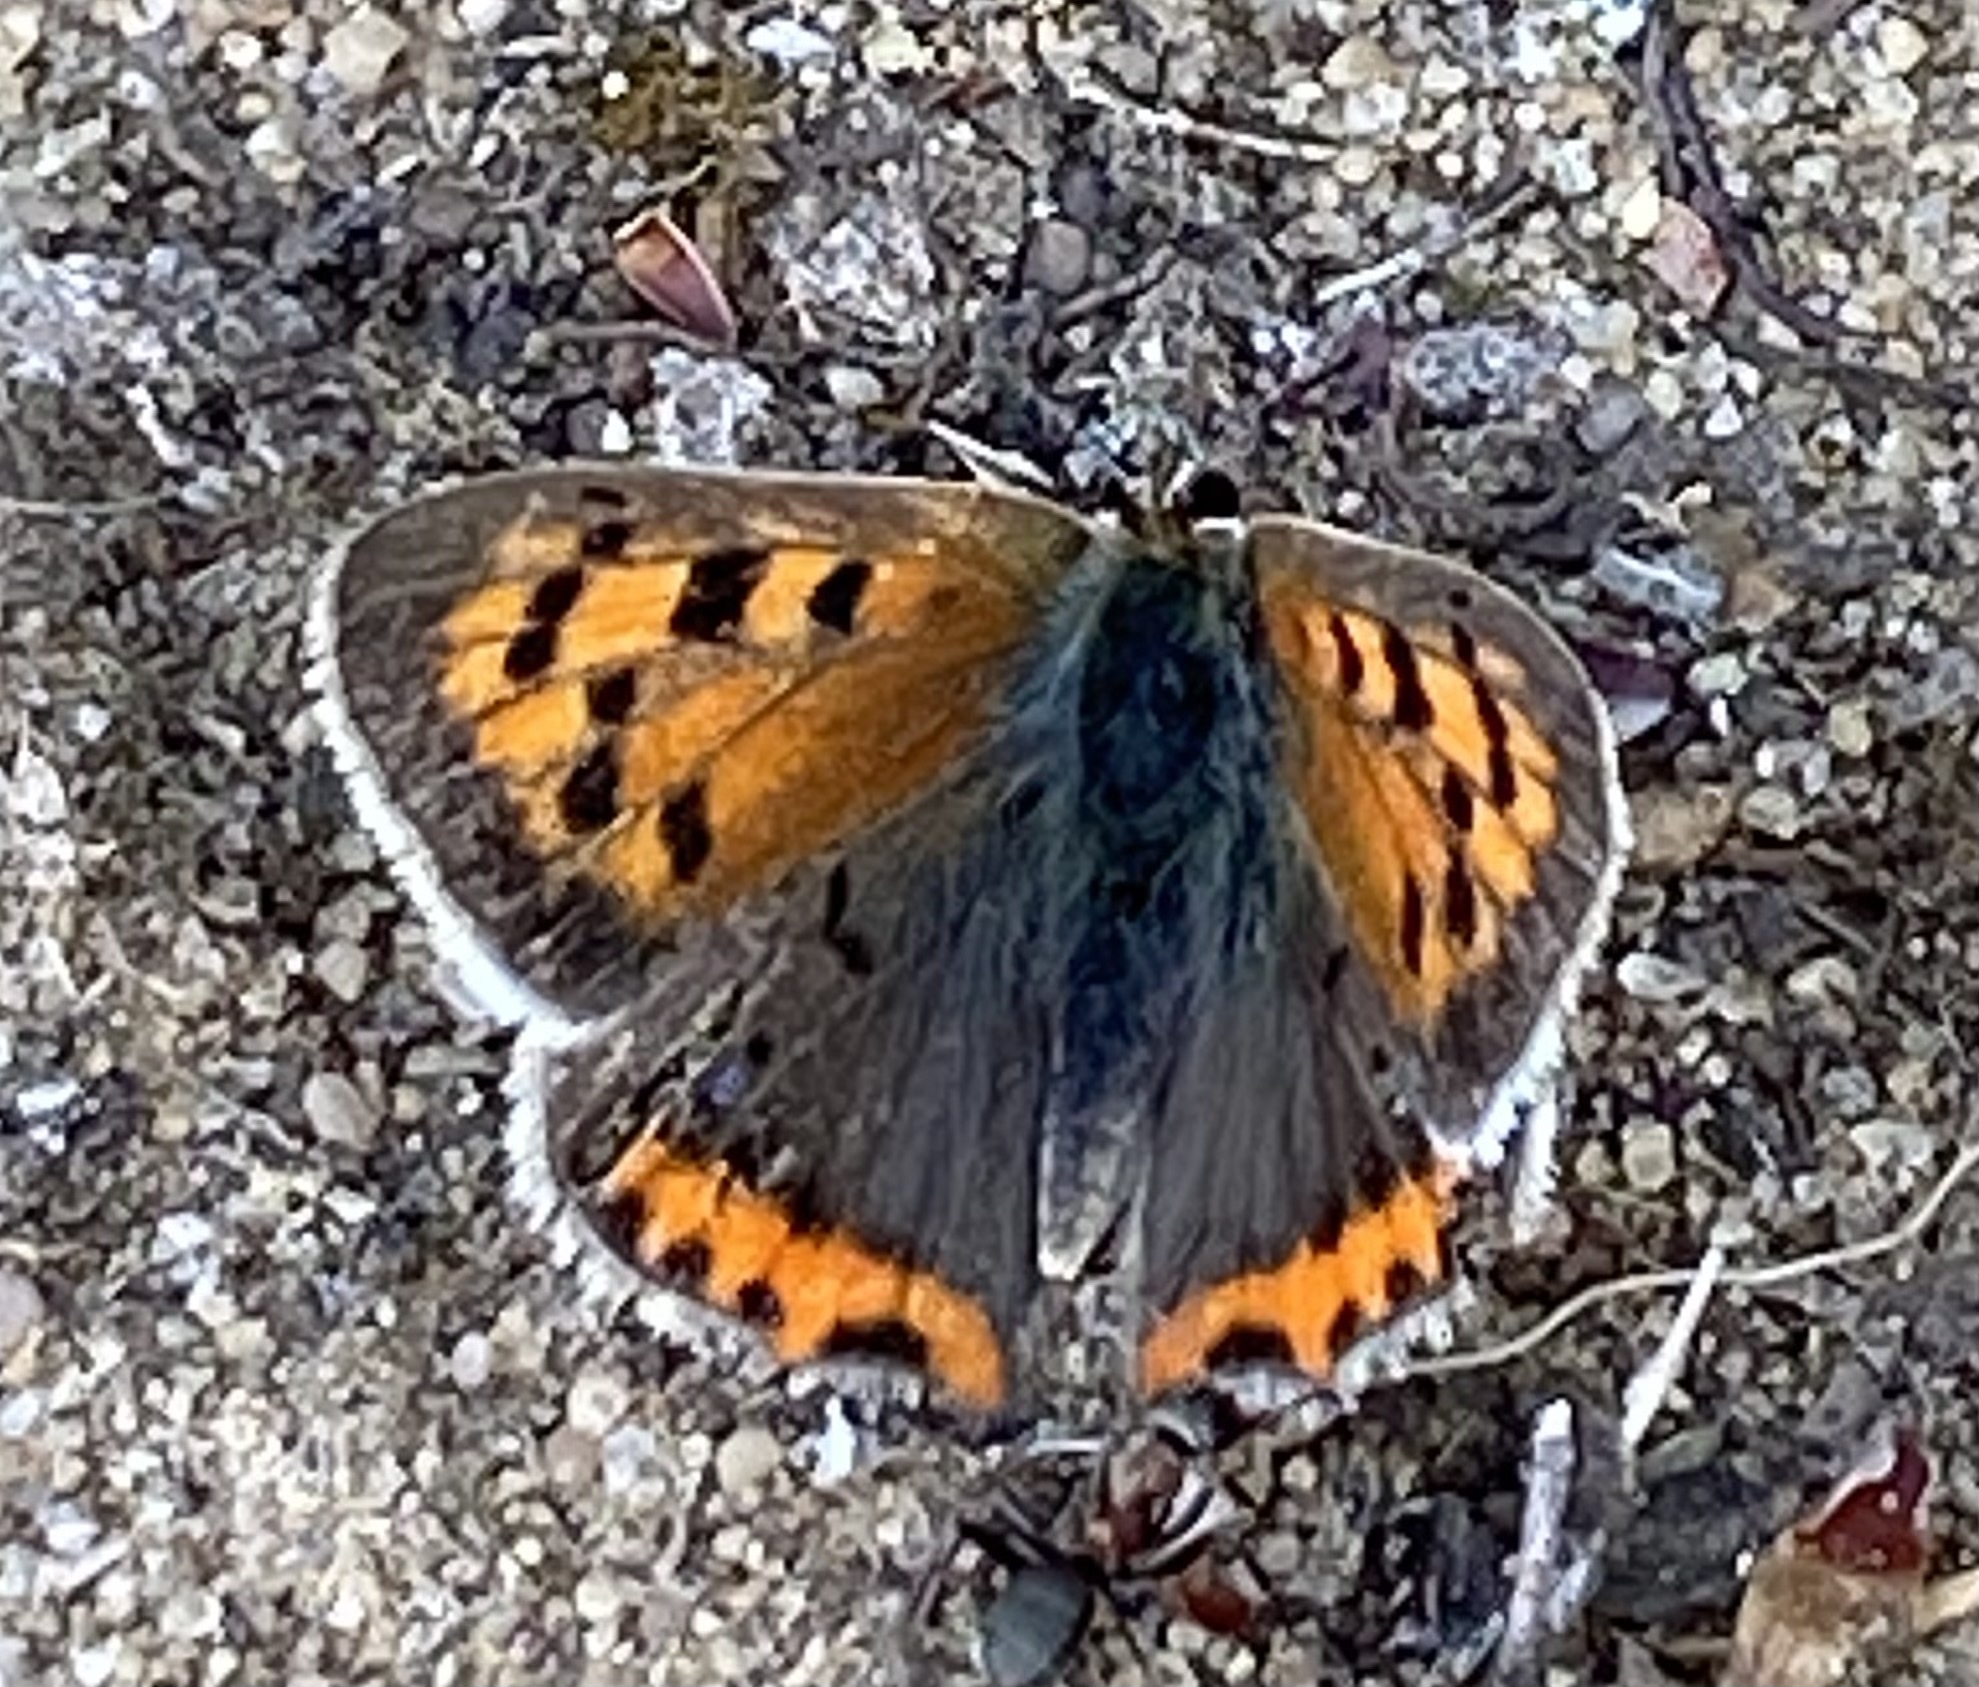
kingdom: Animalia
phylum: Arthropoda
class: Insecta
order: Lepidoptera
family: Lycaenidae
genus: Lycaena
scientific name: Lycaena phlaeas
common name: Small copper
